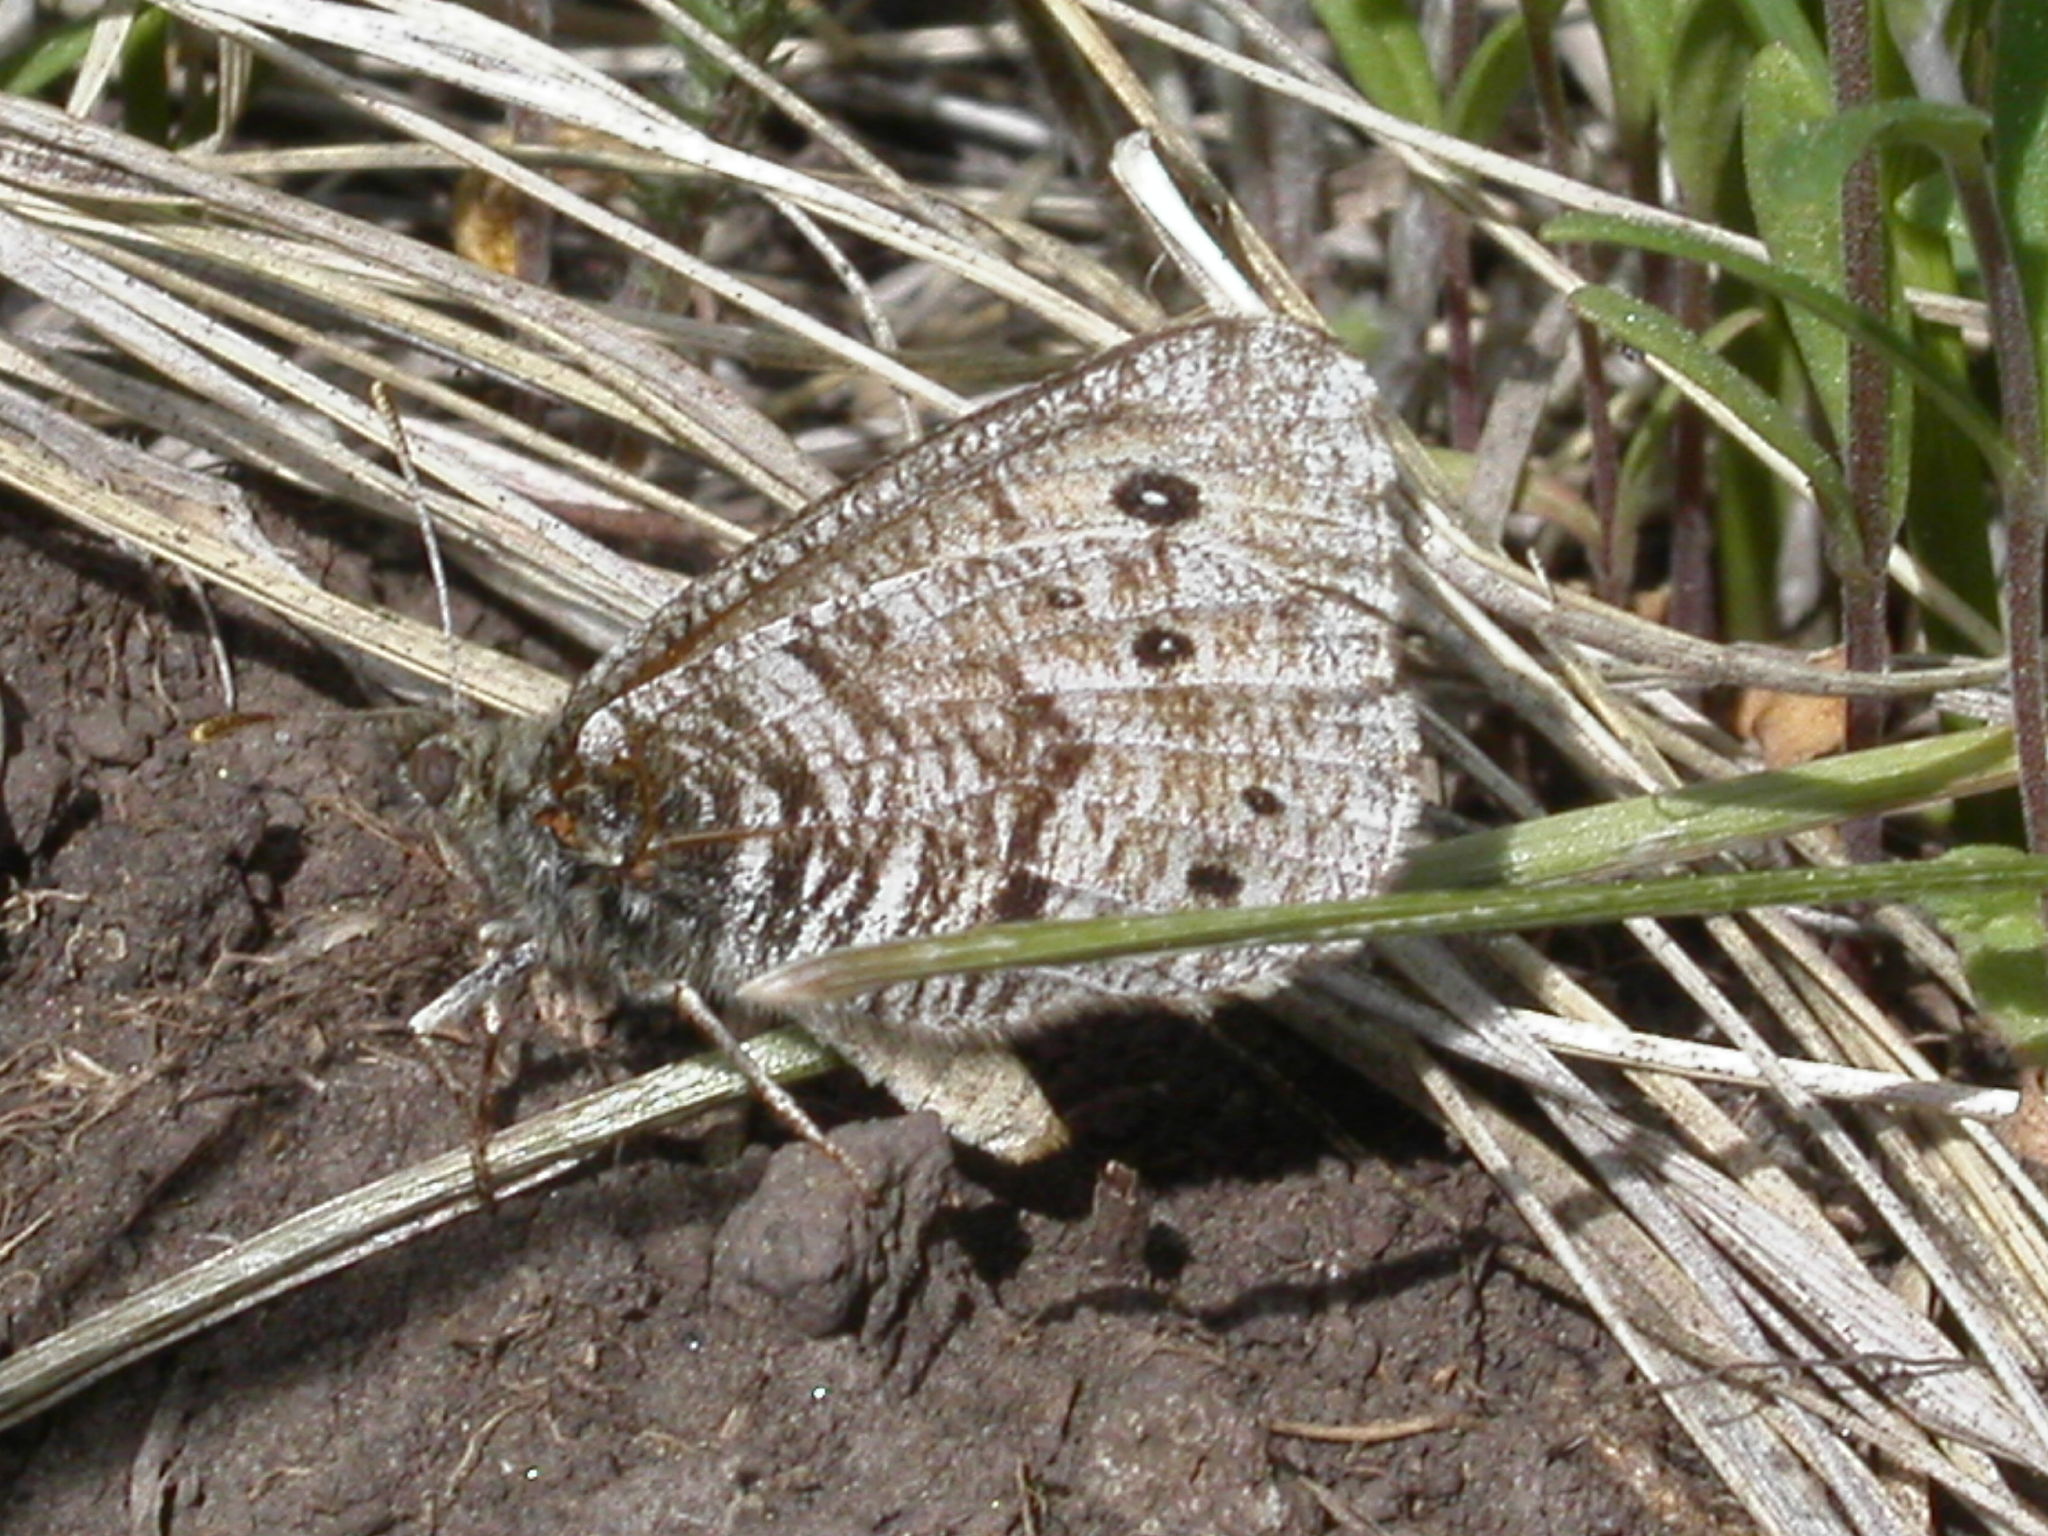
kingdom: Animalia
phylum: Arthropoda
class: Insecta
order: Lepidoptera
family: Nymphalidae
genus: Oeneis
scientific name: Oeneis uhleri
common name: Uhler's arctic
